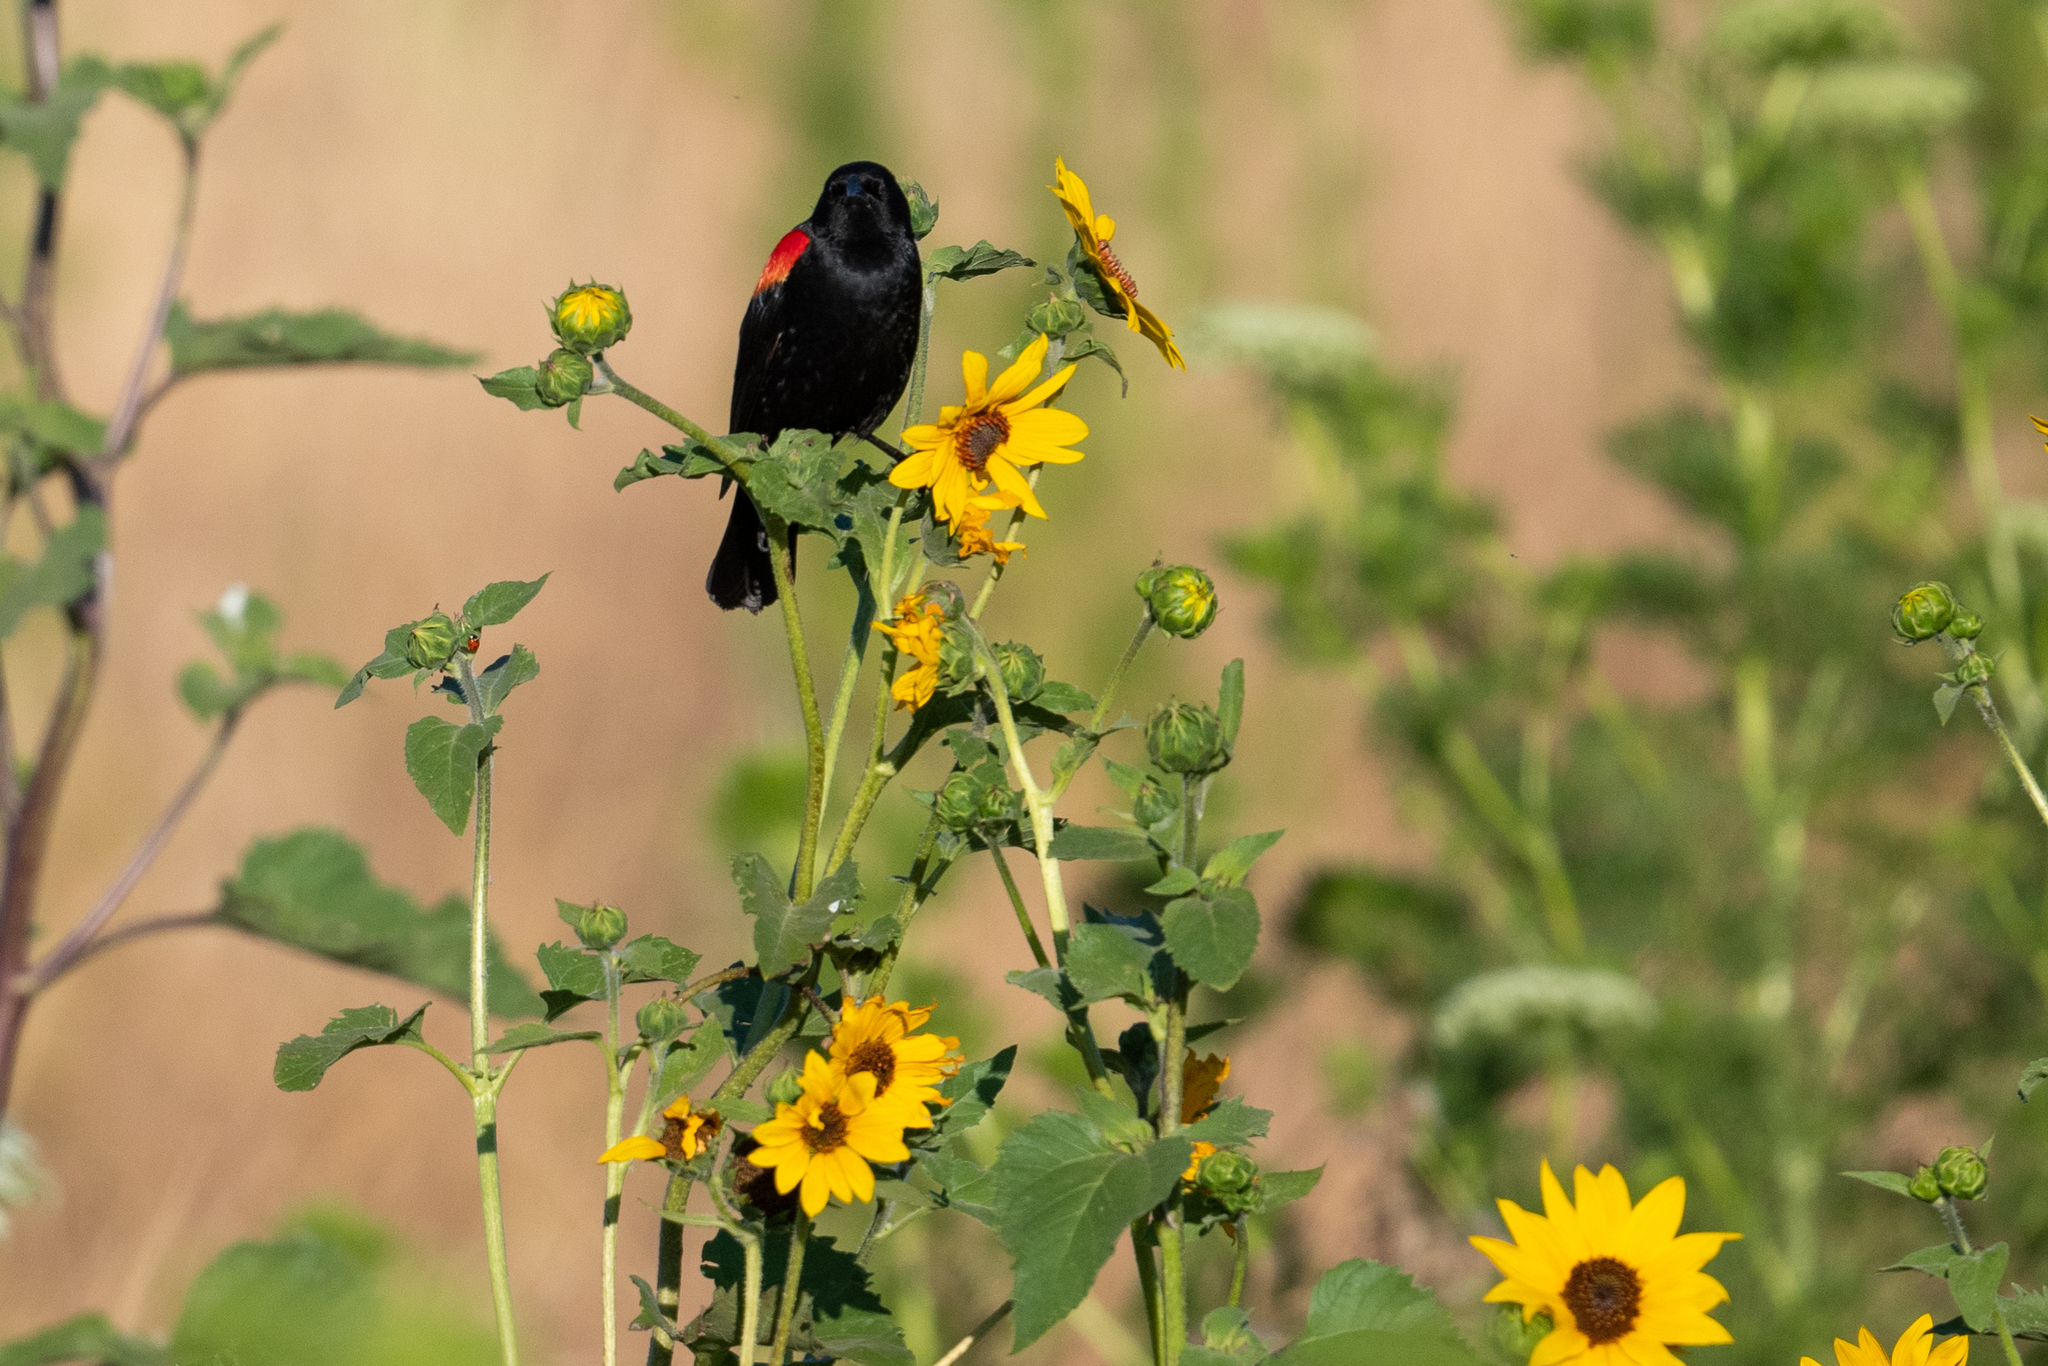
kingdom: Animalia
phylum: Chordata
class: Aves
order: Passeriformes
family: Icteridae
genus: Agelaius
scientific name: Agelaius phoeniceus
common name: Red-winged blackbird
